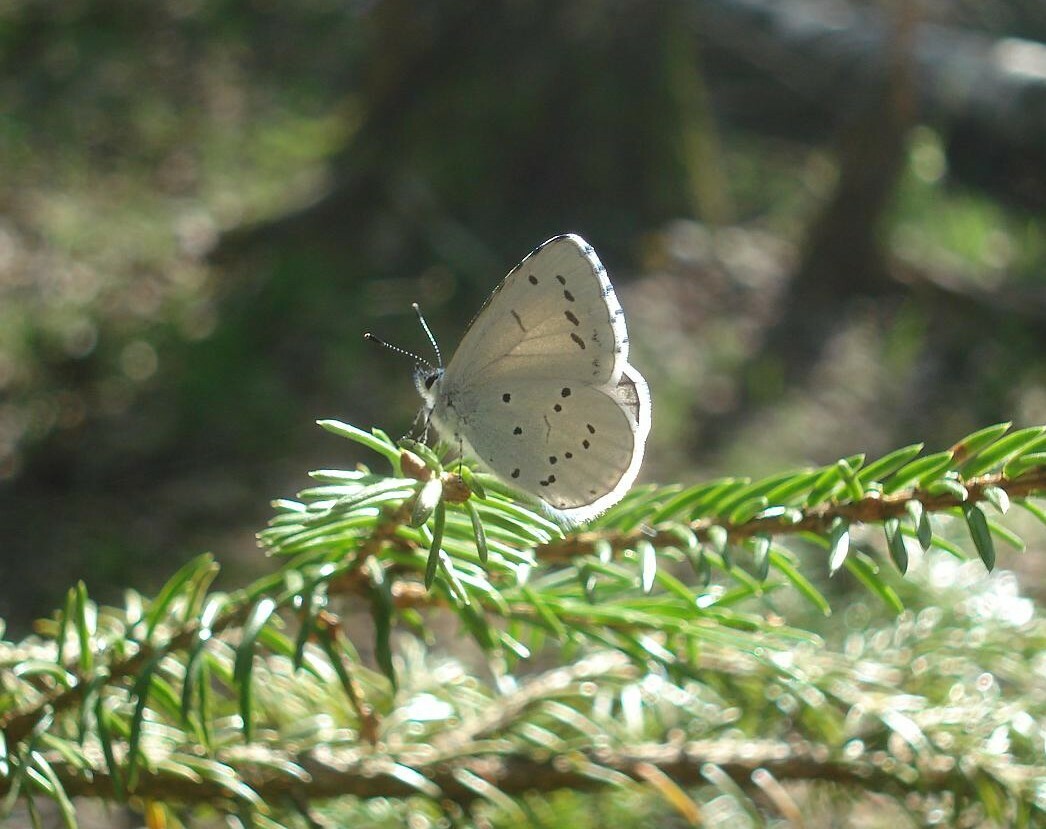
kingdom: Animalia
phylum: Arthropoda
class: Insecta
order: Lepidoptera
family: Lycaenidae
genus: Celastrina
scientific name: Celastrina argiolus
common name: Holly blue
